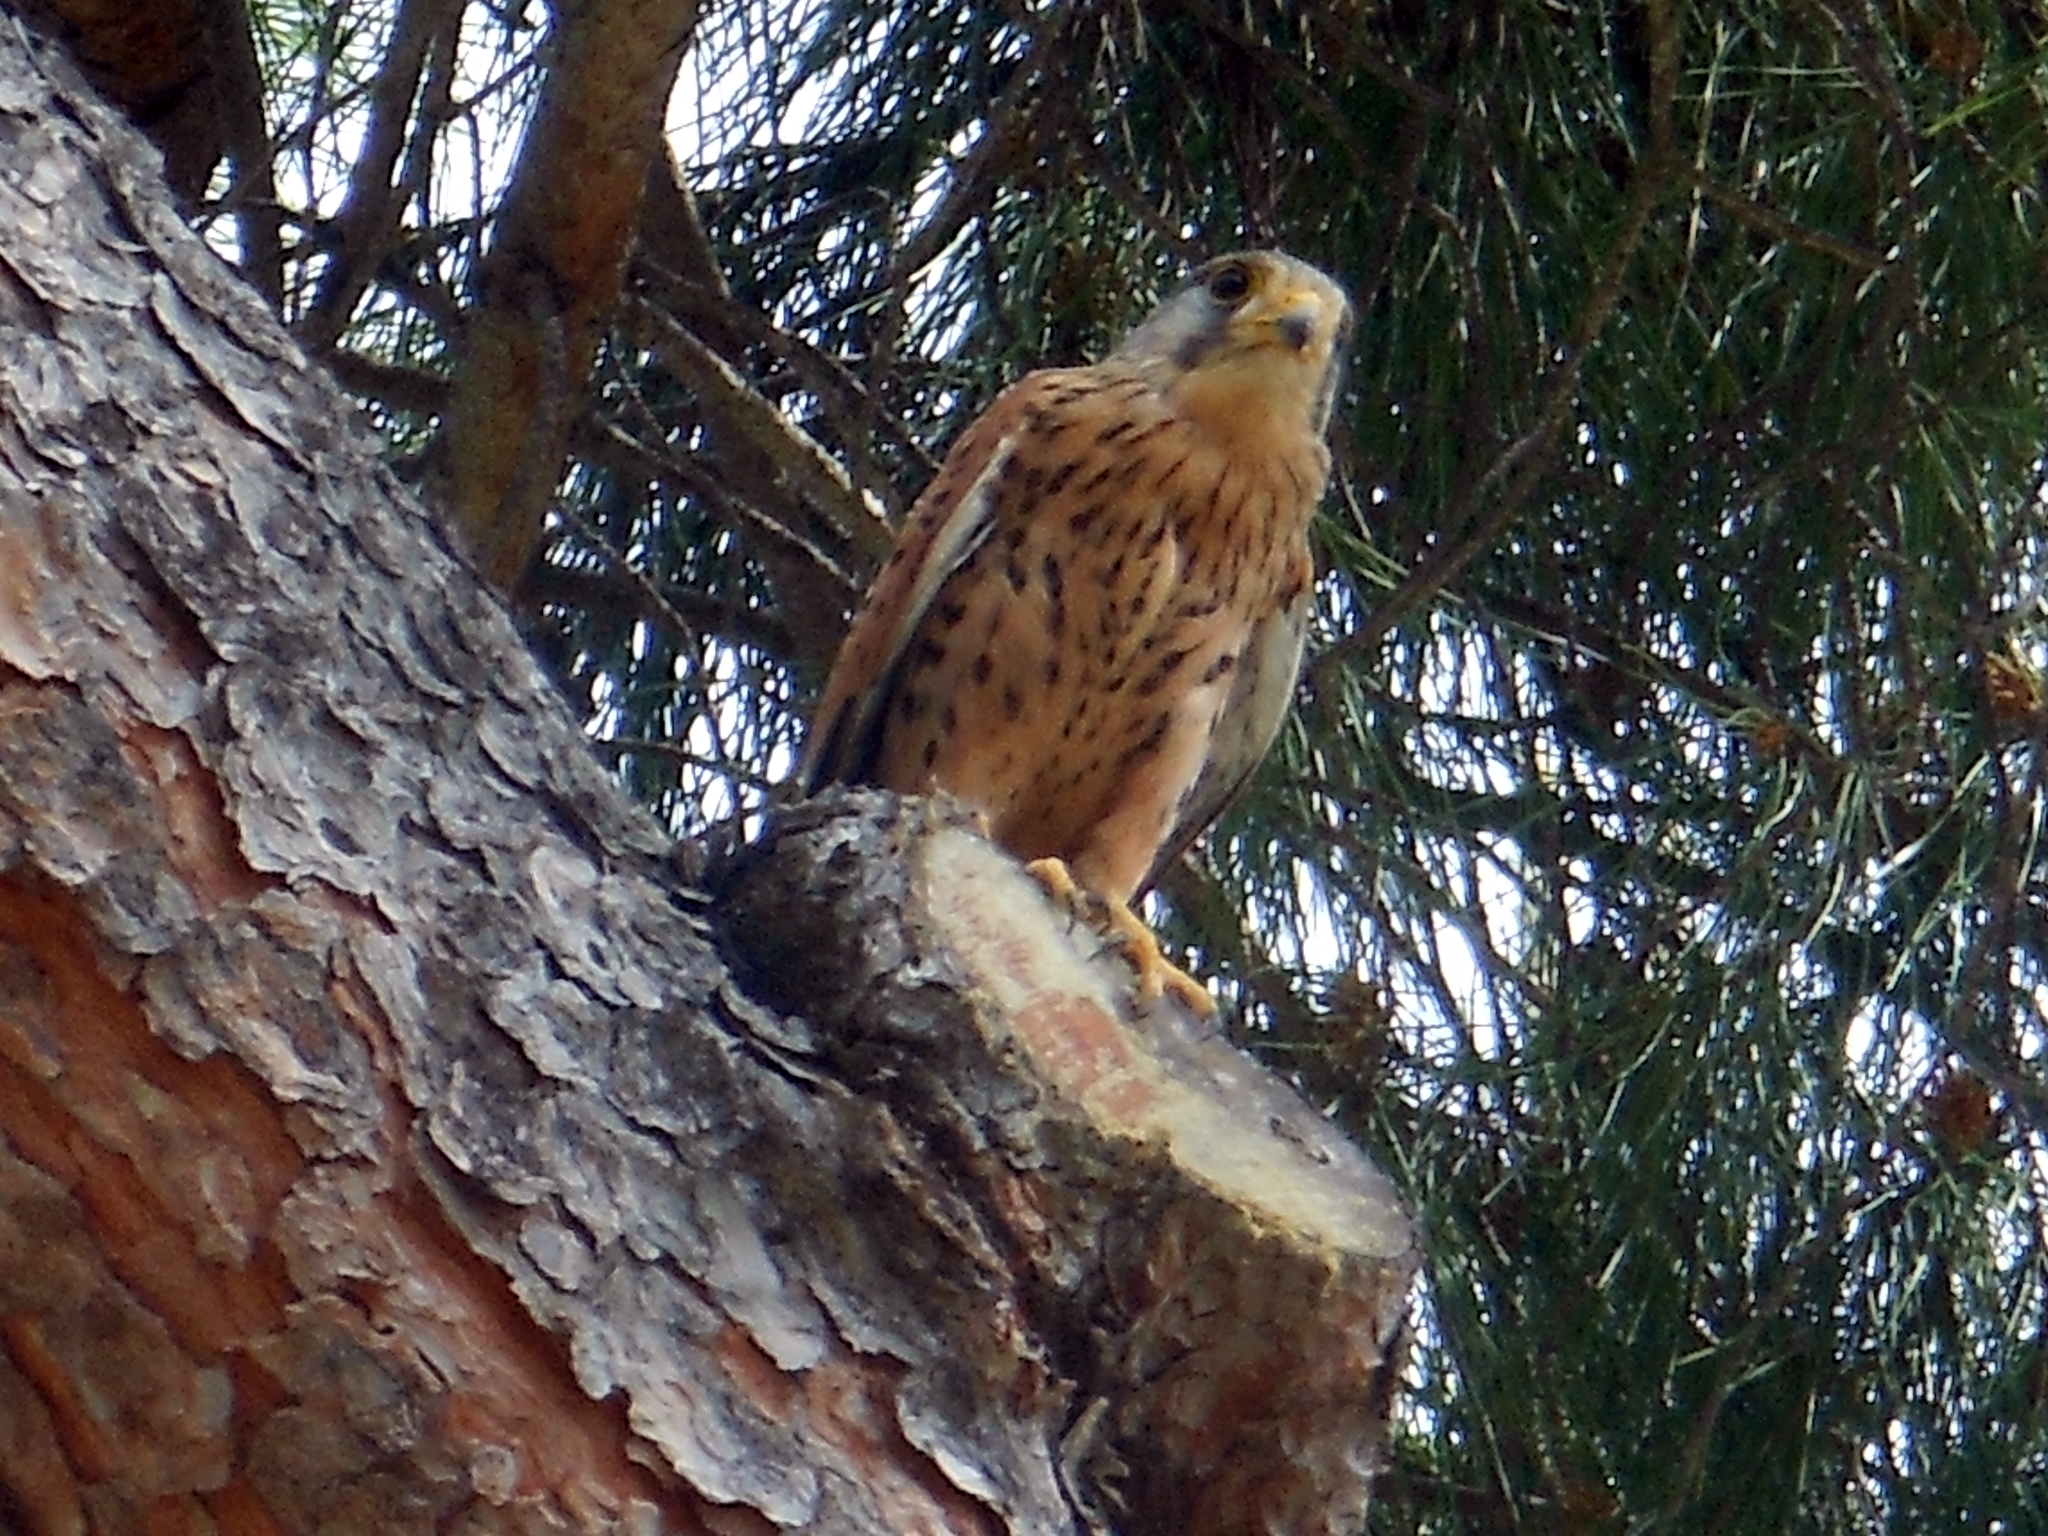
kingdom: Animalia
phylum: Chordata
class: Aves
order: Falconiformes
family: Falconidae
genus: Falco
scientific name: Falco tinnunculus
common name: Common kestrel
